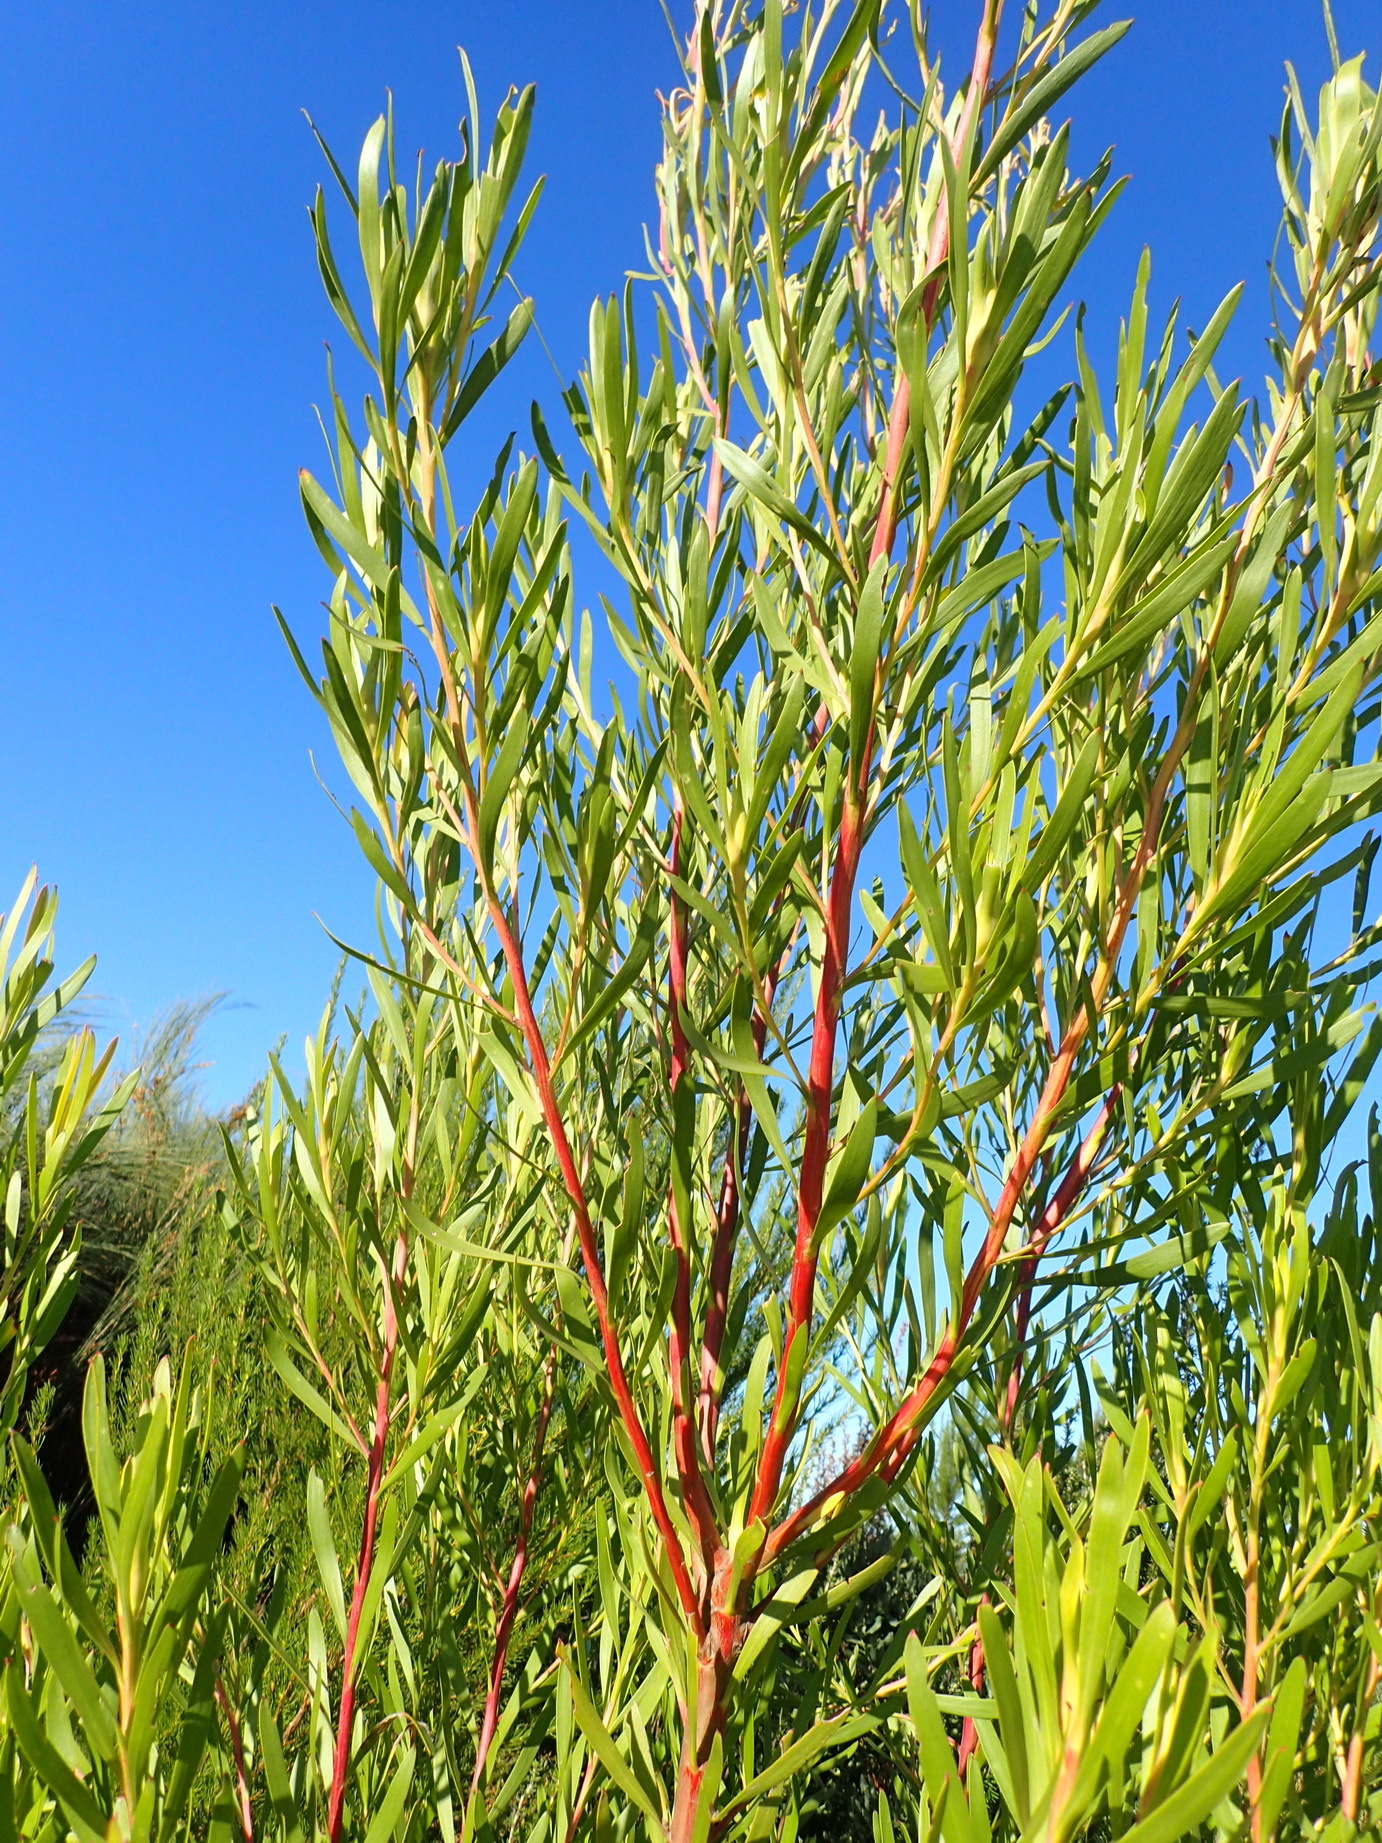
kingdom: Plantae
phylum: Tracheophyta
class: Magnoliopsida
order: Proteales
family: Proteaceae
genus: Leucadendron
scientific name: Leucadendron eucalyptifolium
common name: Gum-leaved conebush
